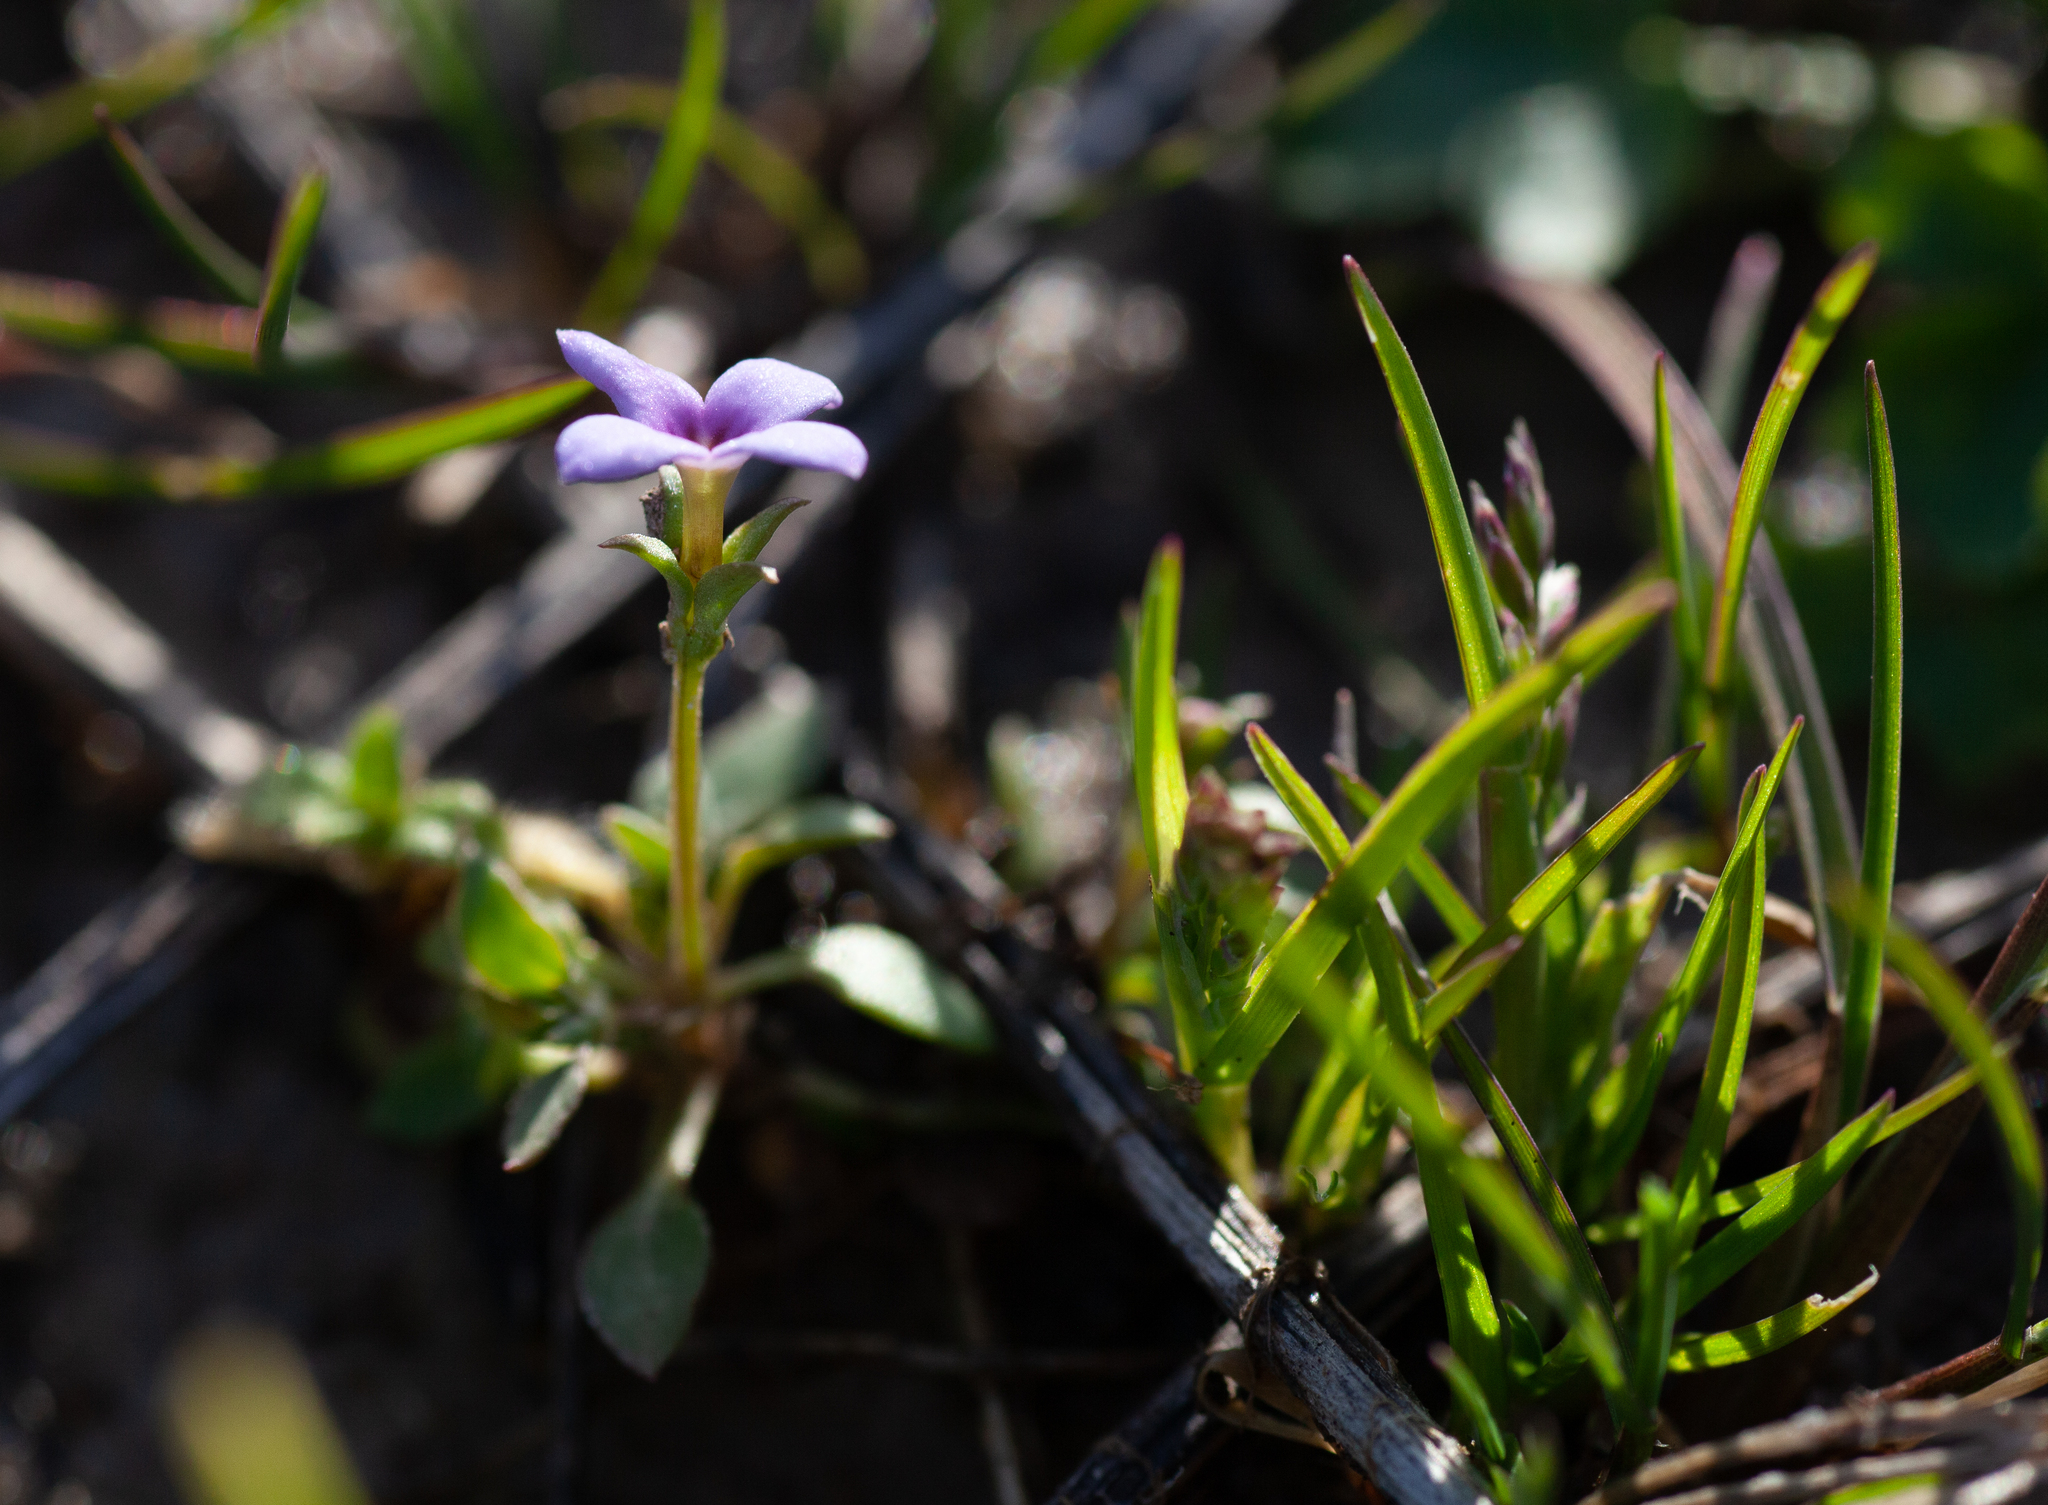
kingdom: Plantae
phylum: Tracheophyta
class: Magnoliopsida
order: Gentianales
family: Rubiaceae
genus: Houstonia
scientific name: Houstonia pusilla
